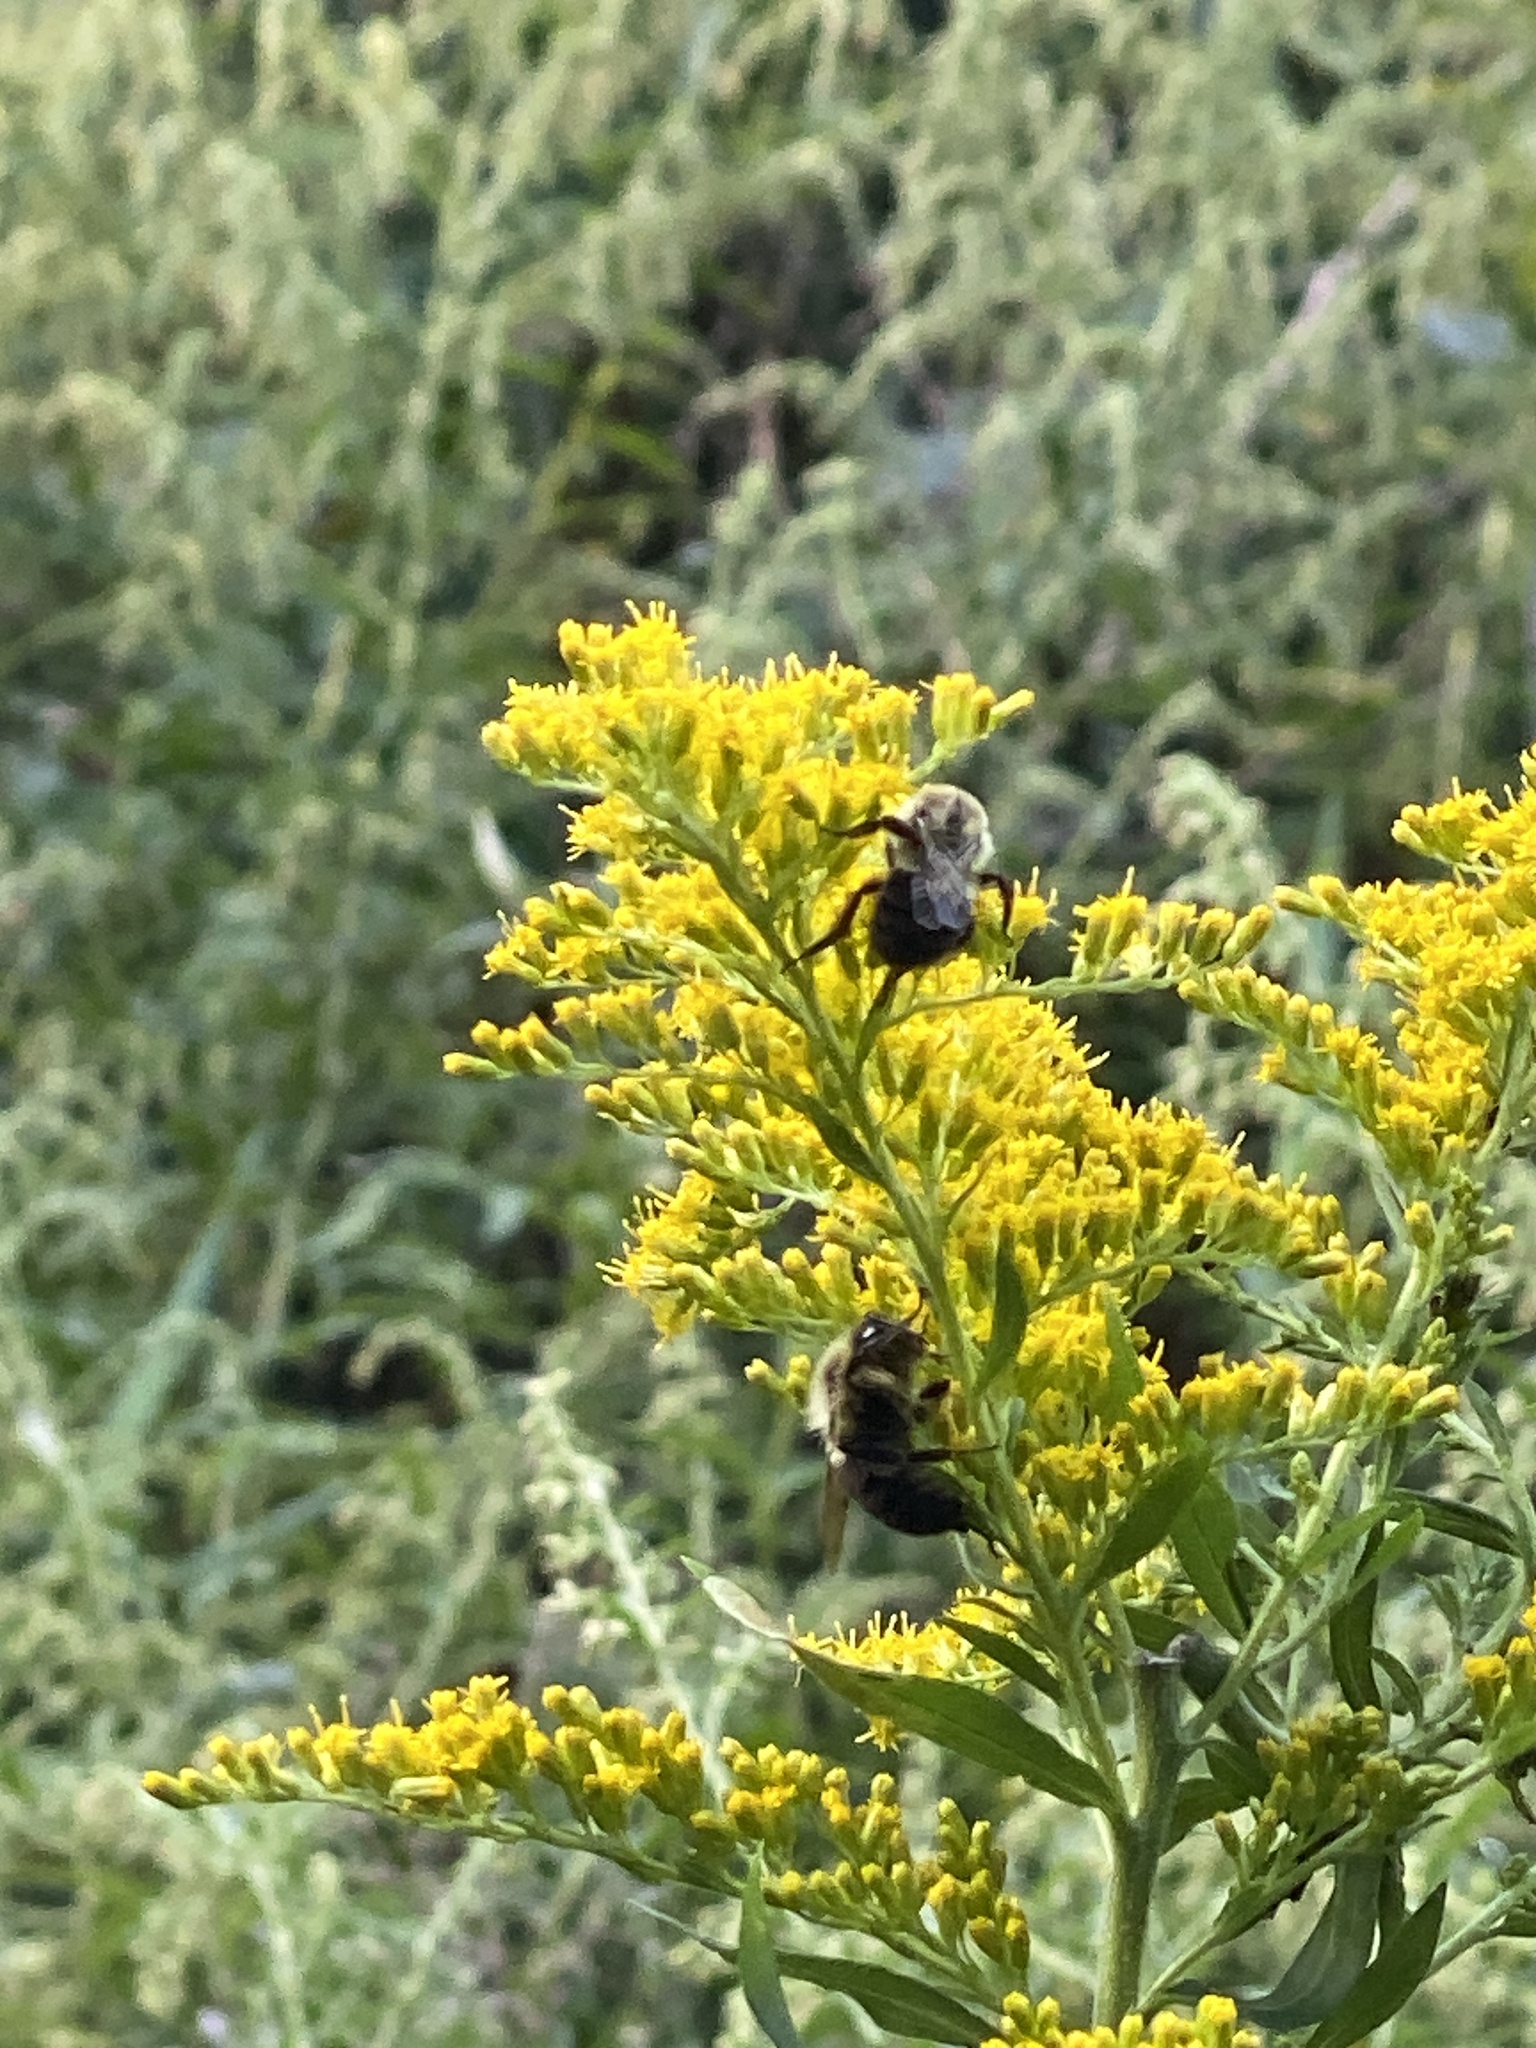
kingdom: Animalia
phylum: Arthropoda
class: Insecta
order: Hymenoptera
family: Apidae
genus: Bombus
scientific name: Bombus impatiens
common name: Common eastern bumble bee
